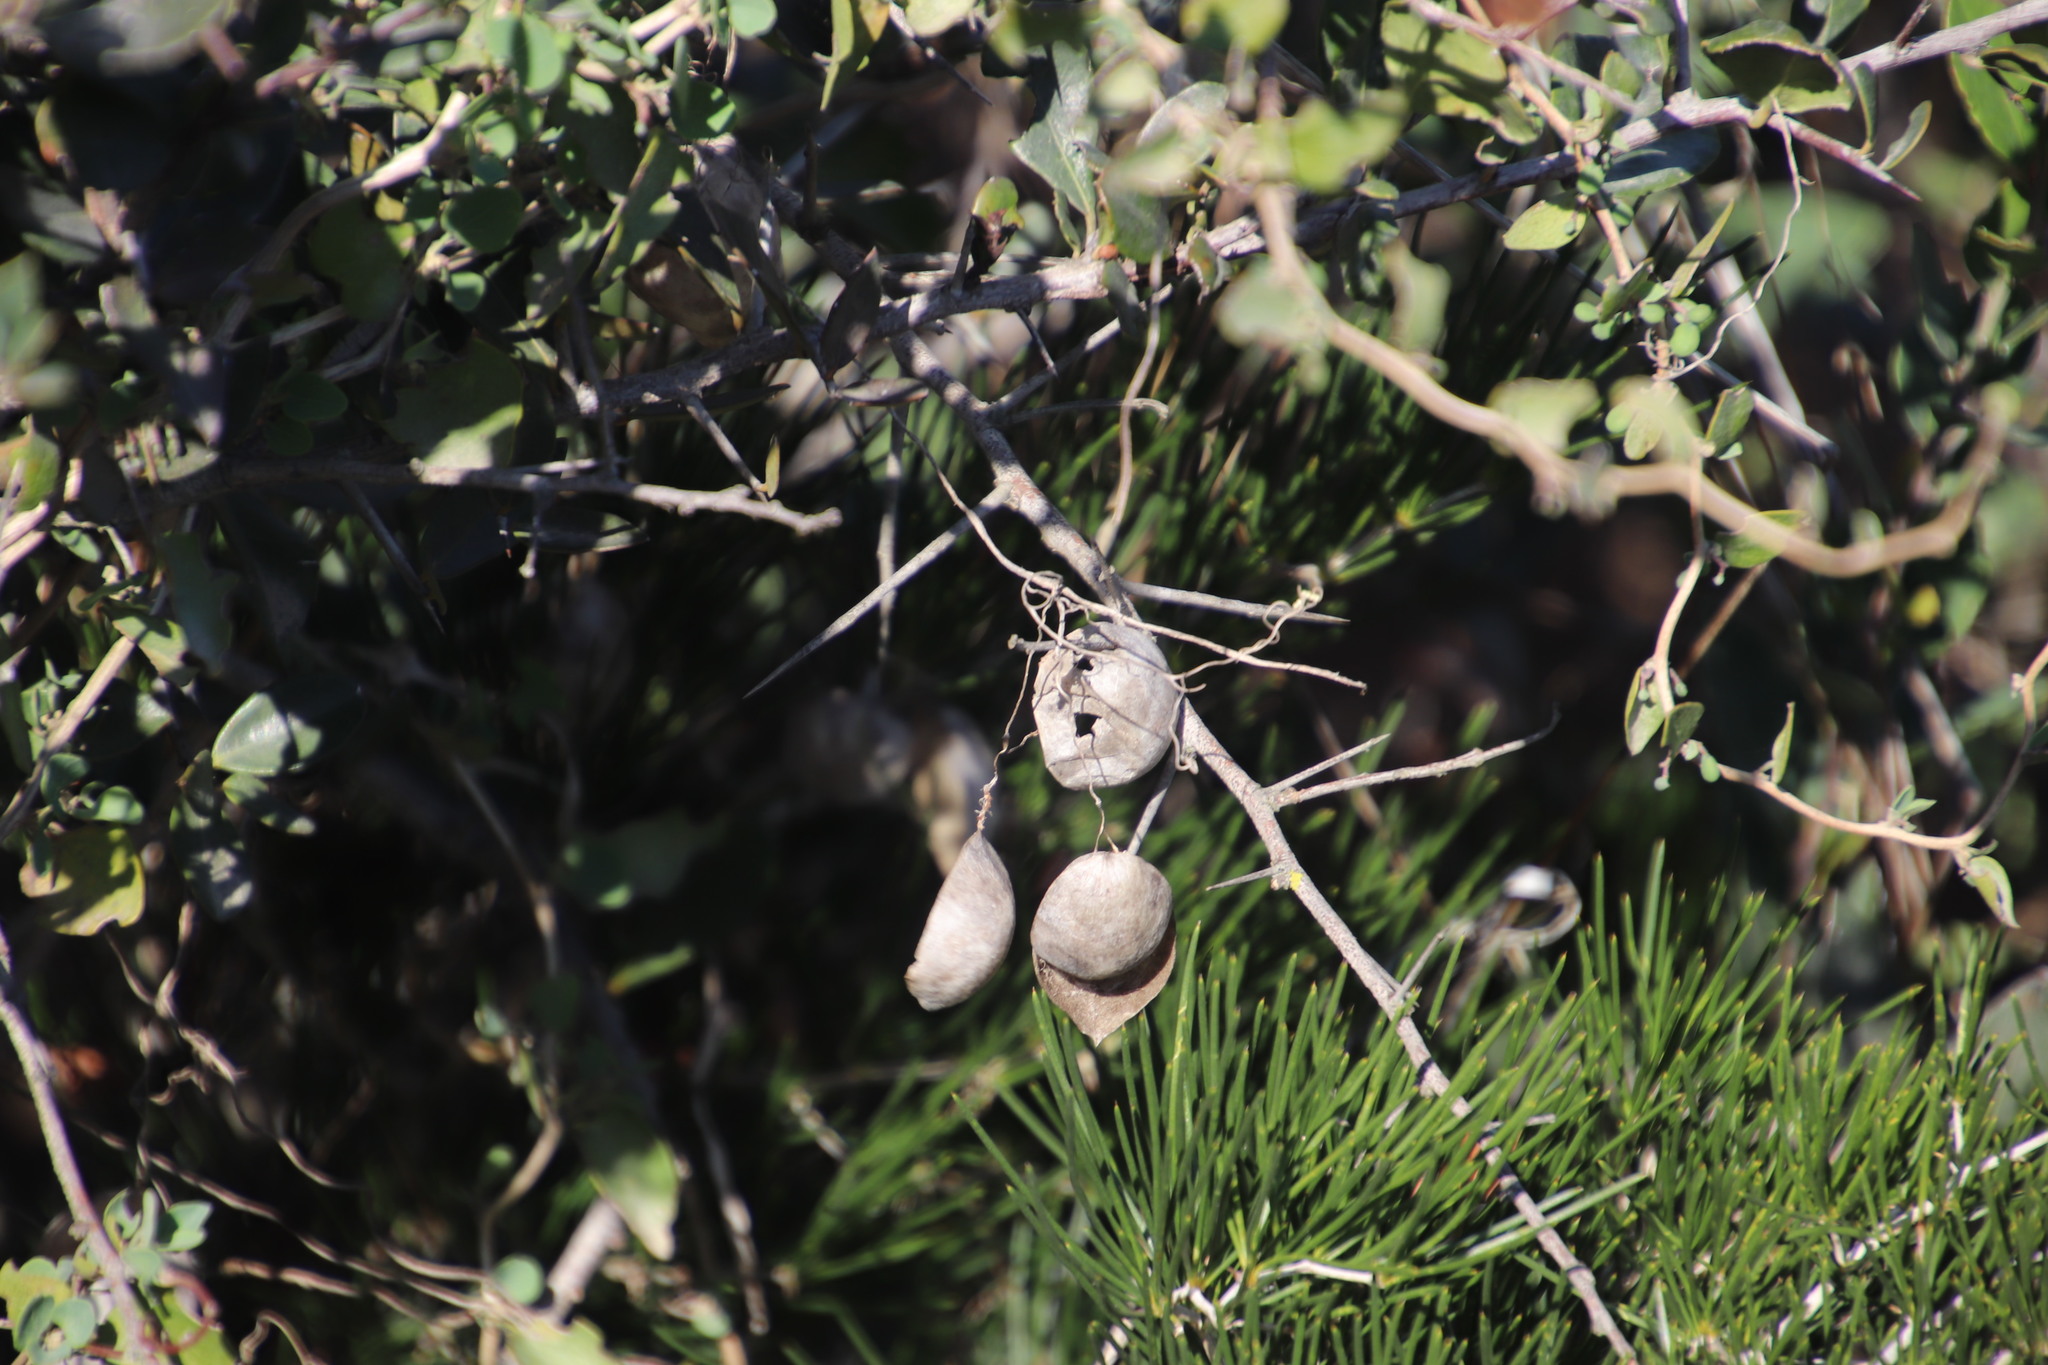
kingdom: Plantae
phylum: Tracheophyta
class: Magnoliopsida
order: Ranunculales
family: Papaveraceae
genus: Cysticapnos
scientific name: Cysticapnos vesicaria
